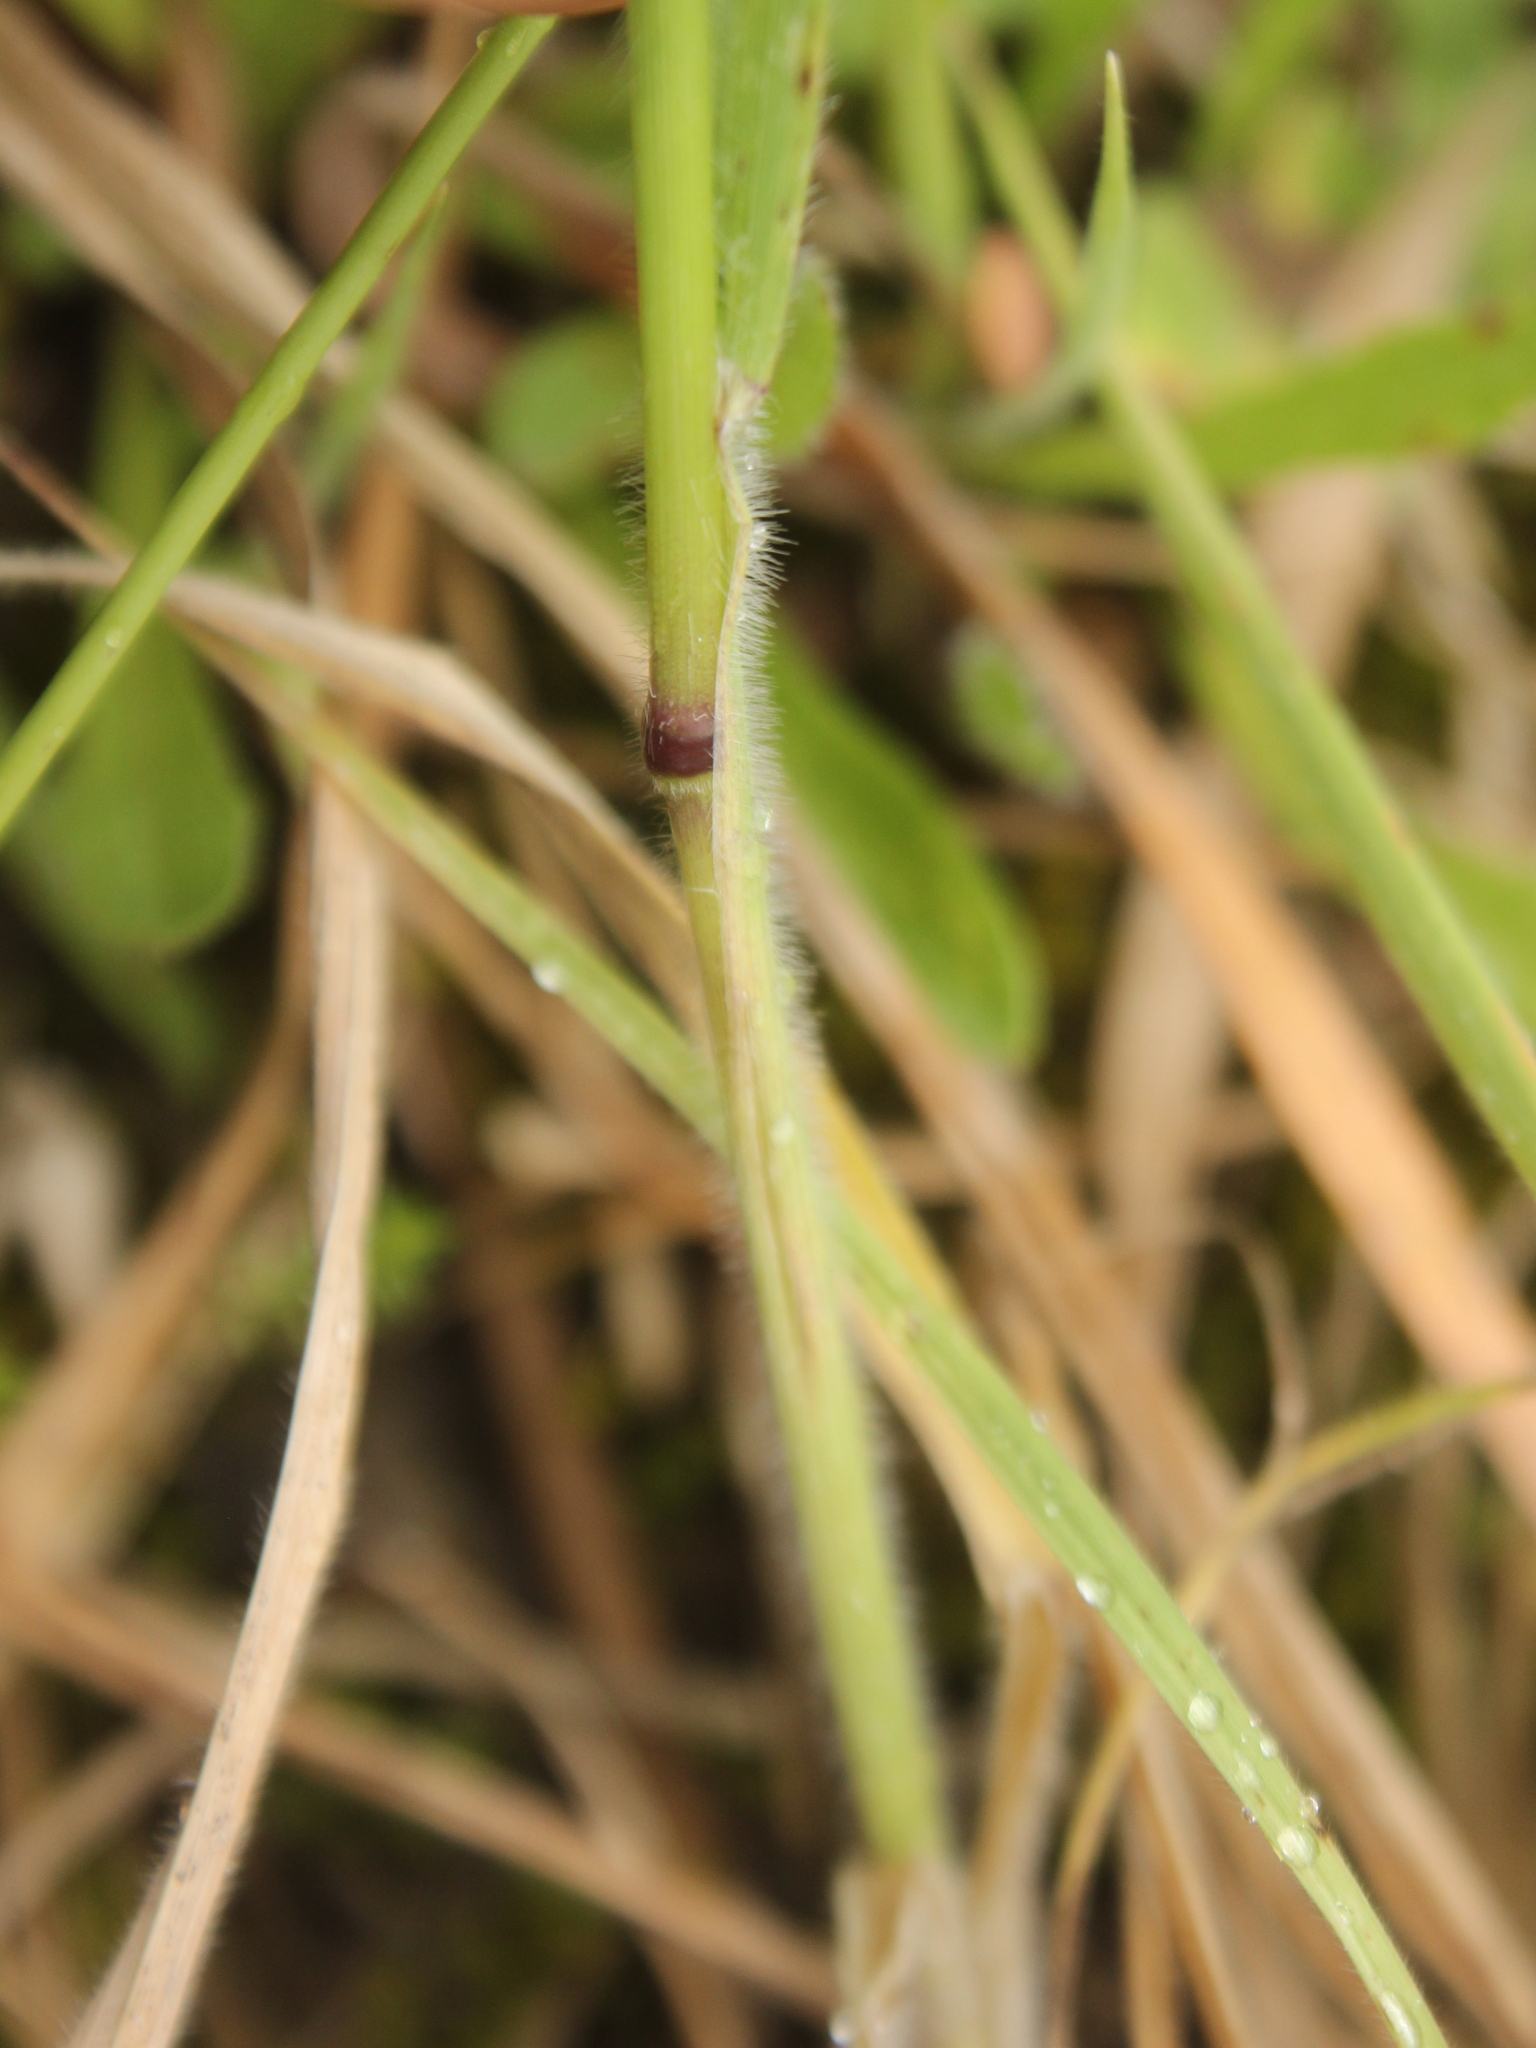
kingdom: Plantae
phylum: Tracheophyta
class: Liliopsida
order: Poales
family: Poaceae
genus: Bromus
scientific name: Bromus cebadilla
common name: Southern brome
